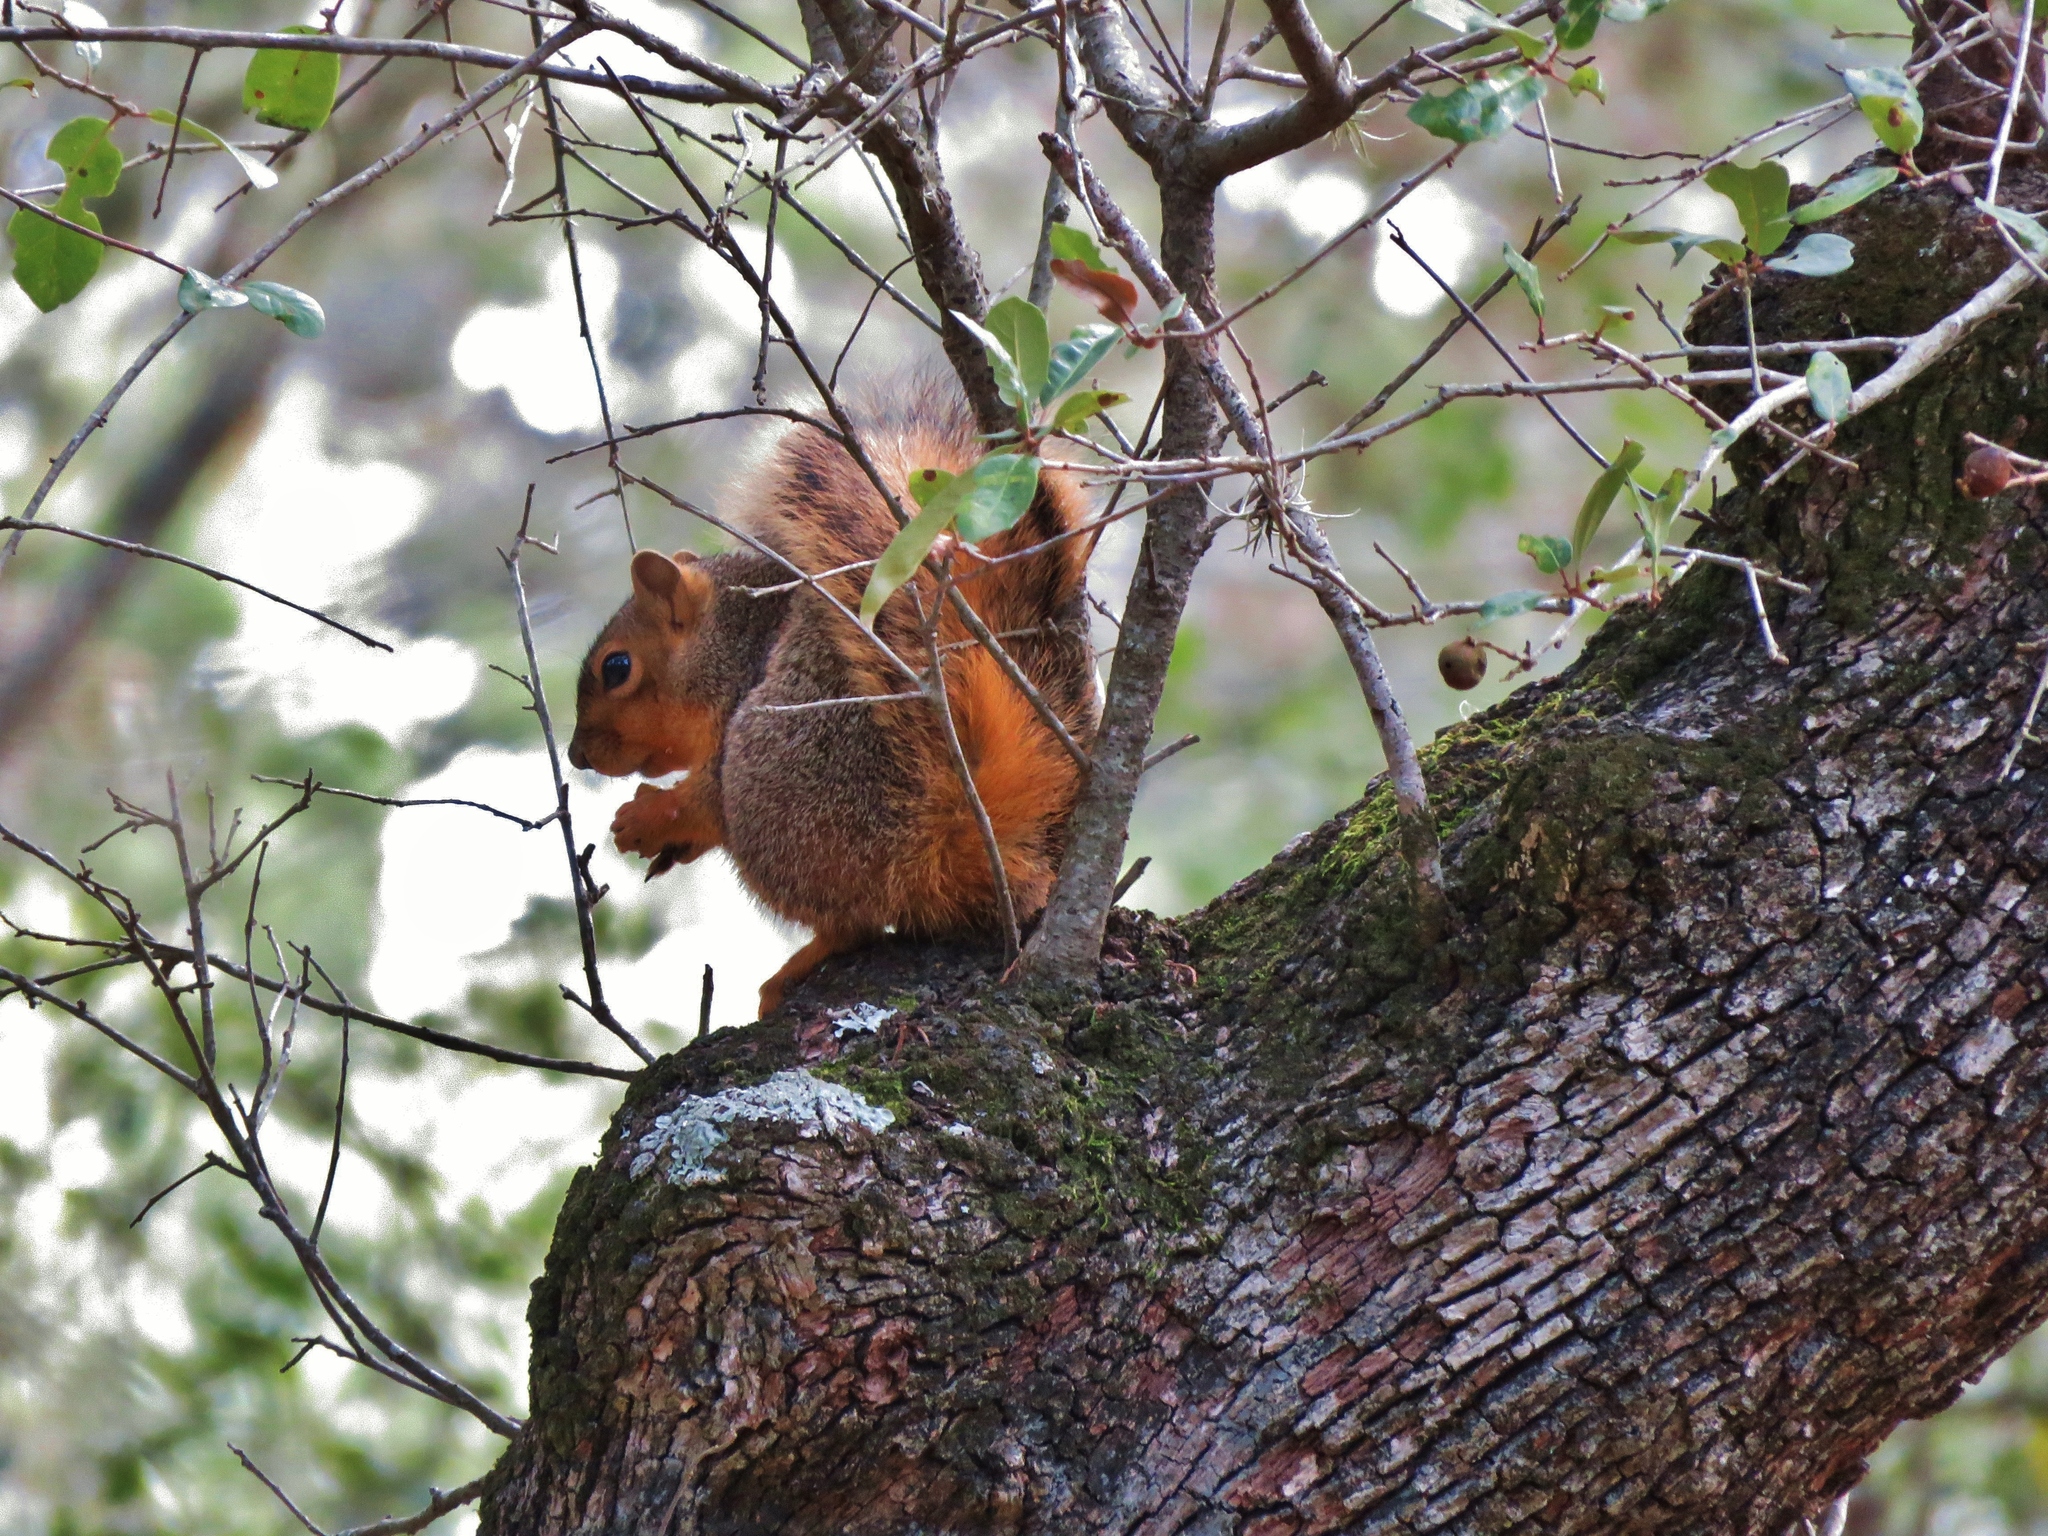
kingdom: Animalia
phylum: Chordata
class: Mammalia
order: Rodentia
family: Sciuridae
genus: Sciurus
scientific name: Sciurus niger
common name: Fox squirrel
